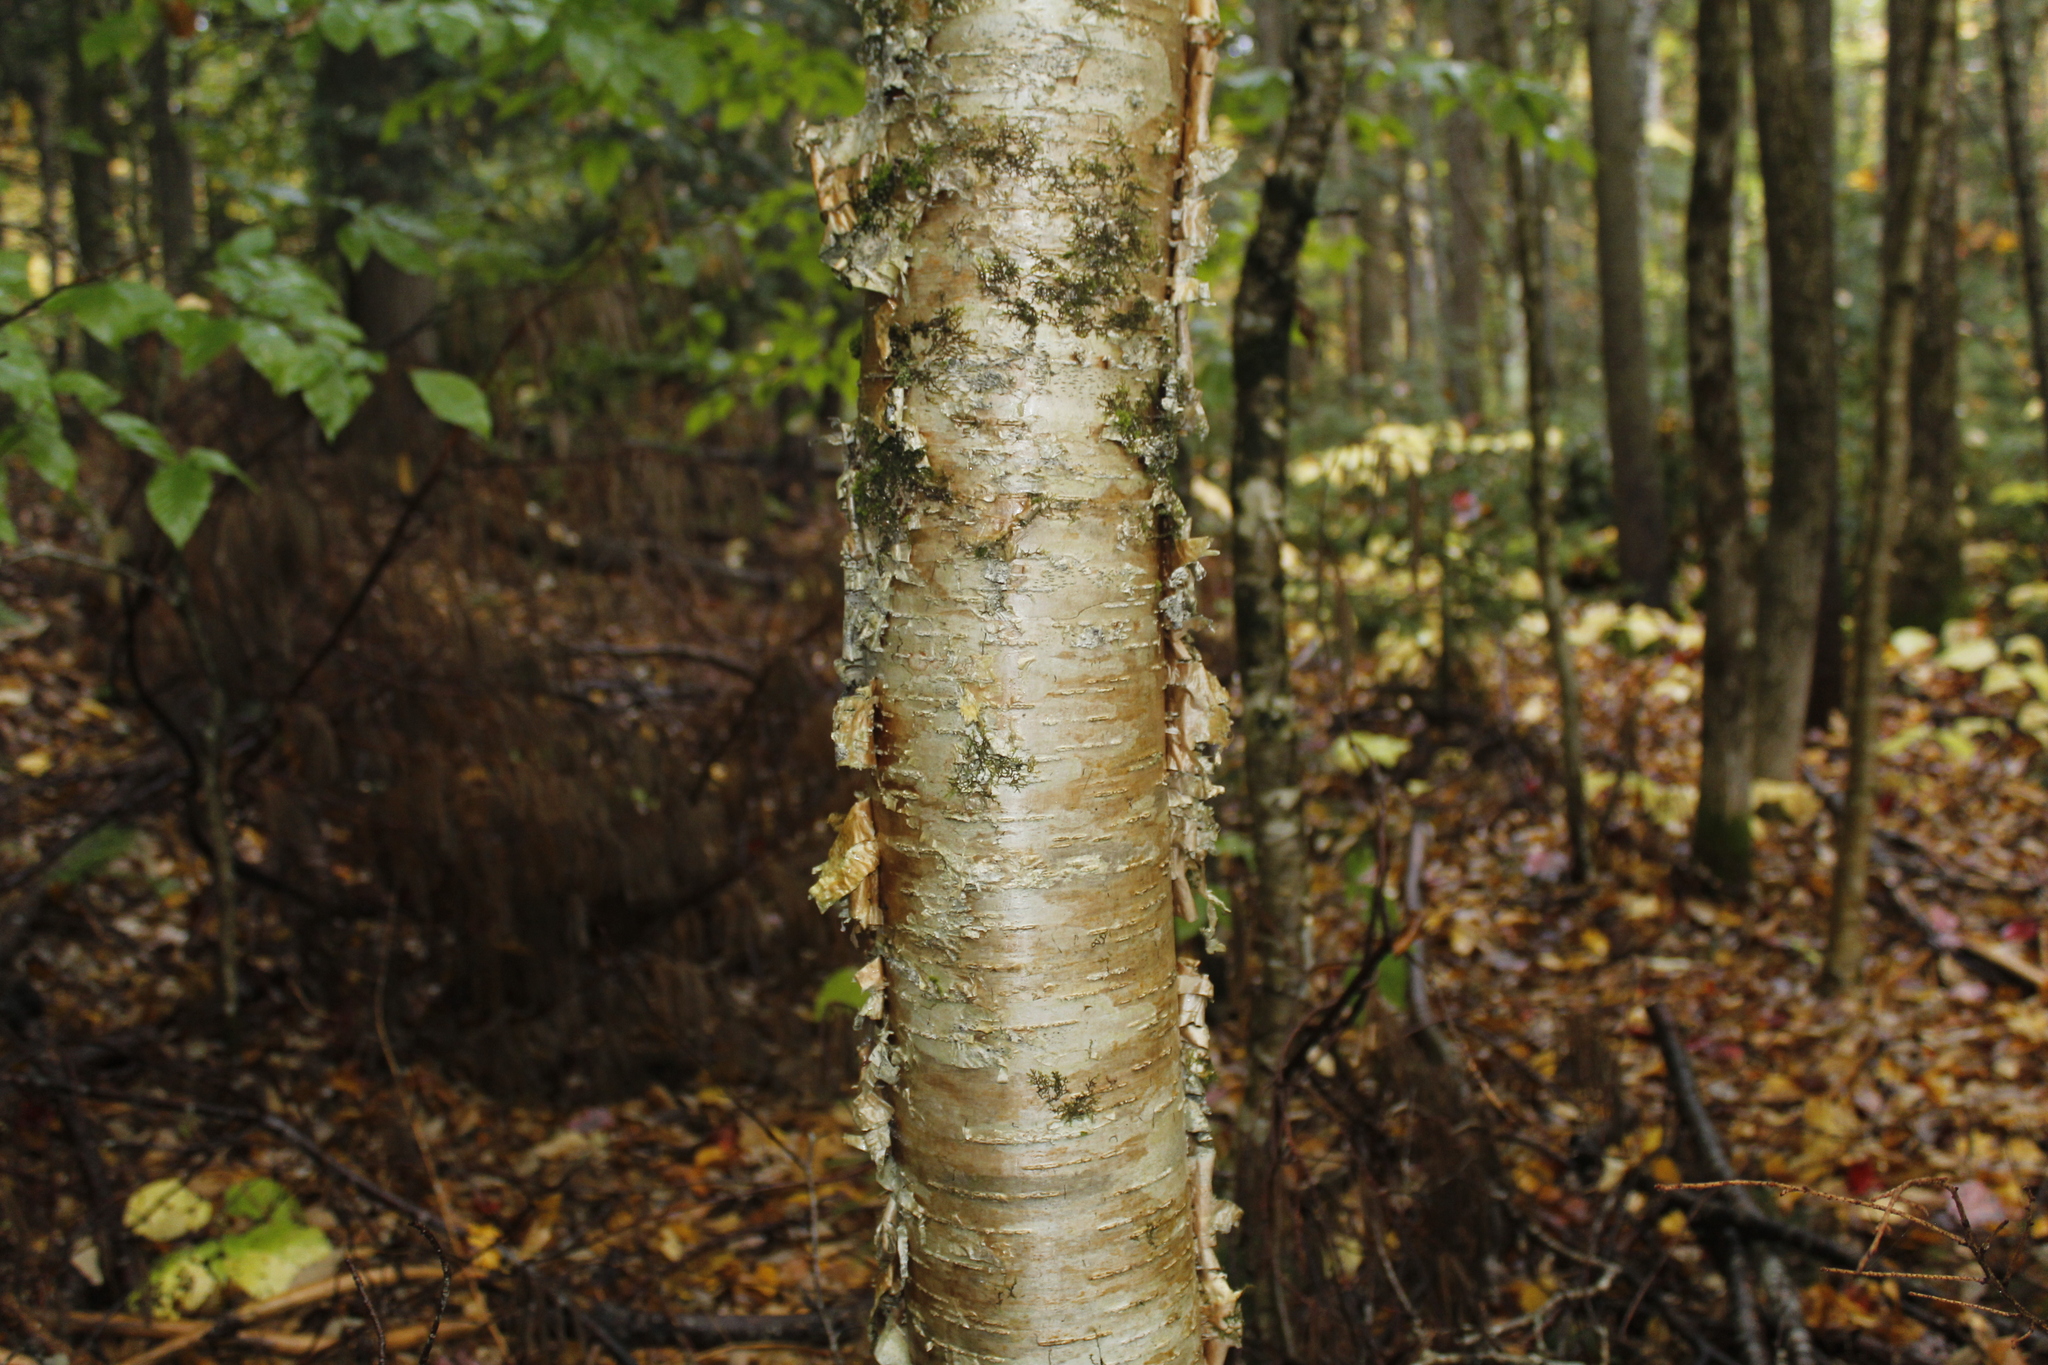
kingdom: Plantae
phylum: Tracheophyta
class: Magnoliopsida
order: Fagales
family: Betulaceae
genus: Betula
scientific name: Betula alleghaniensis
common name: Yellow birch
